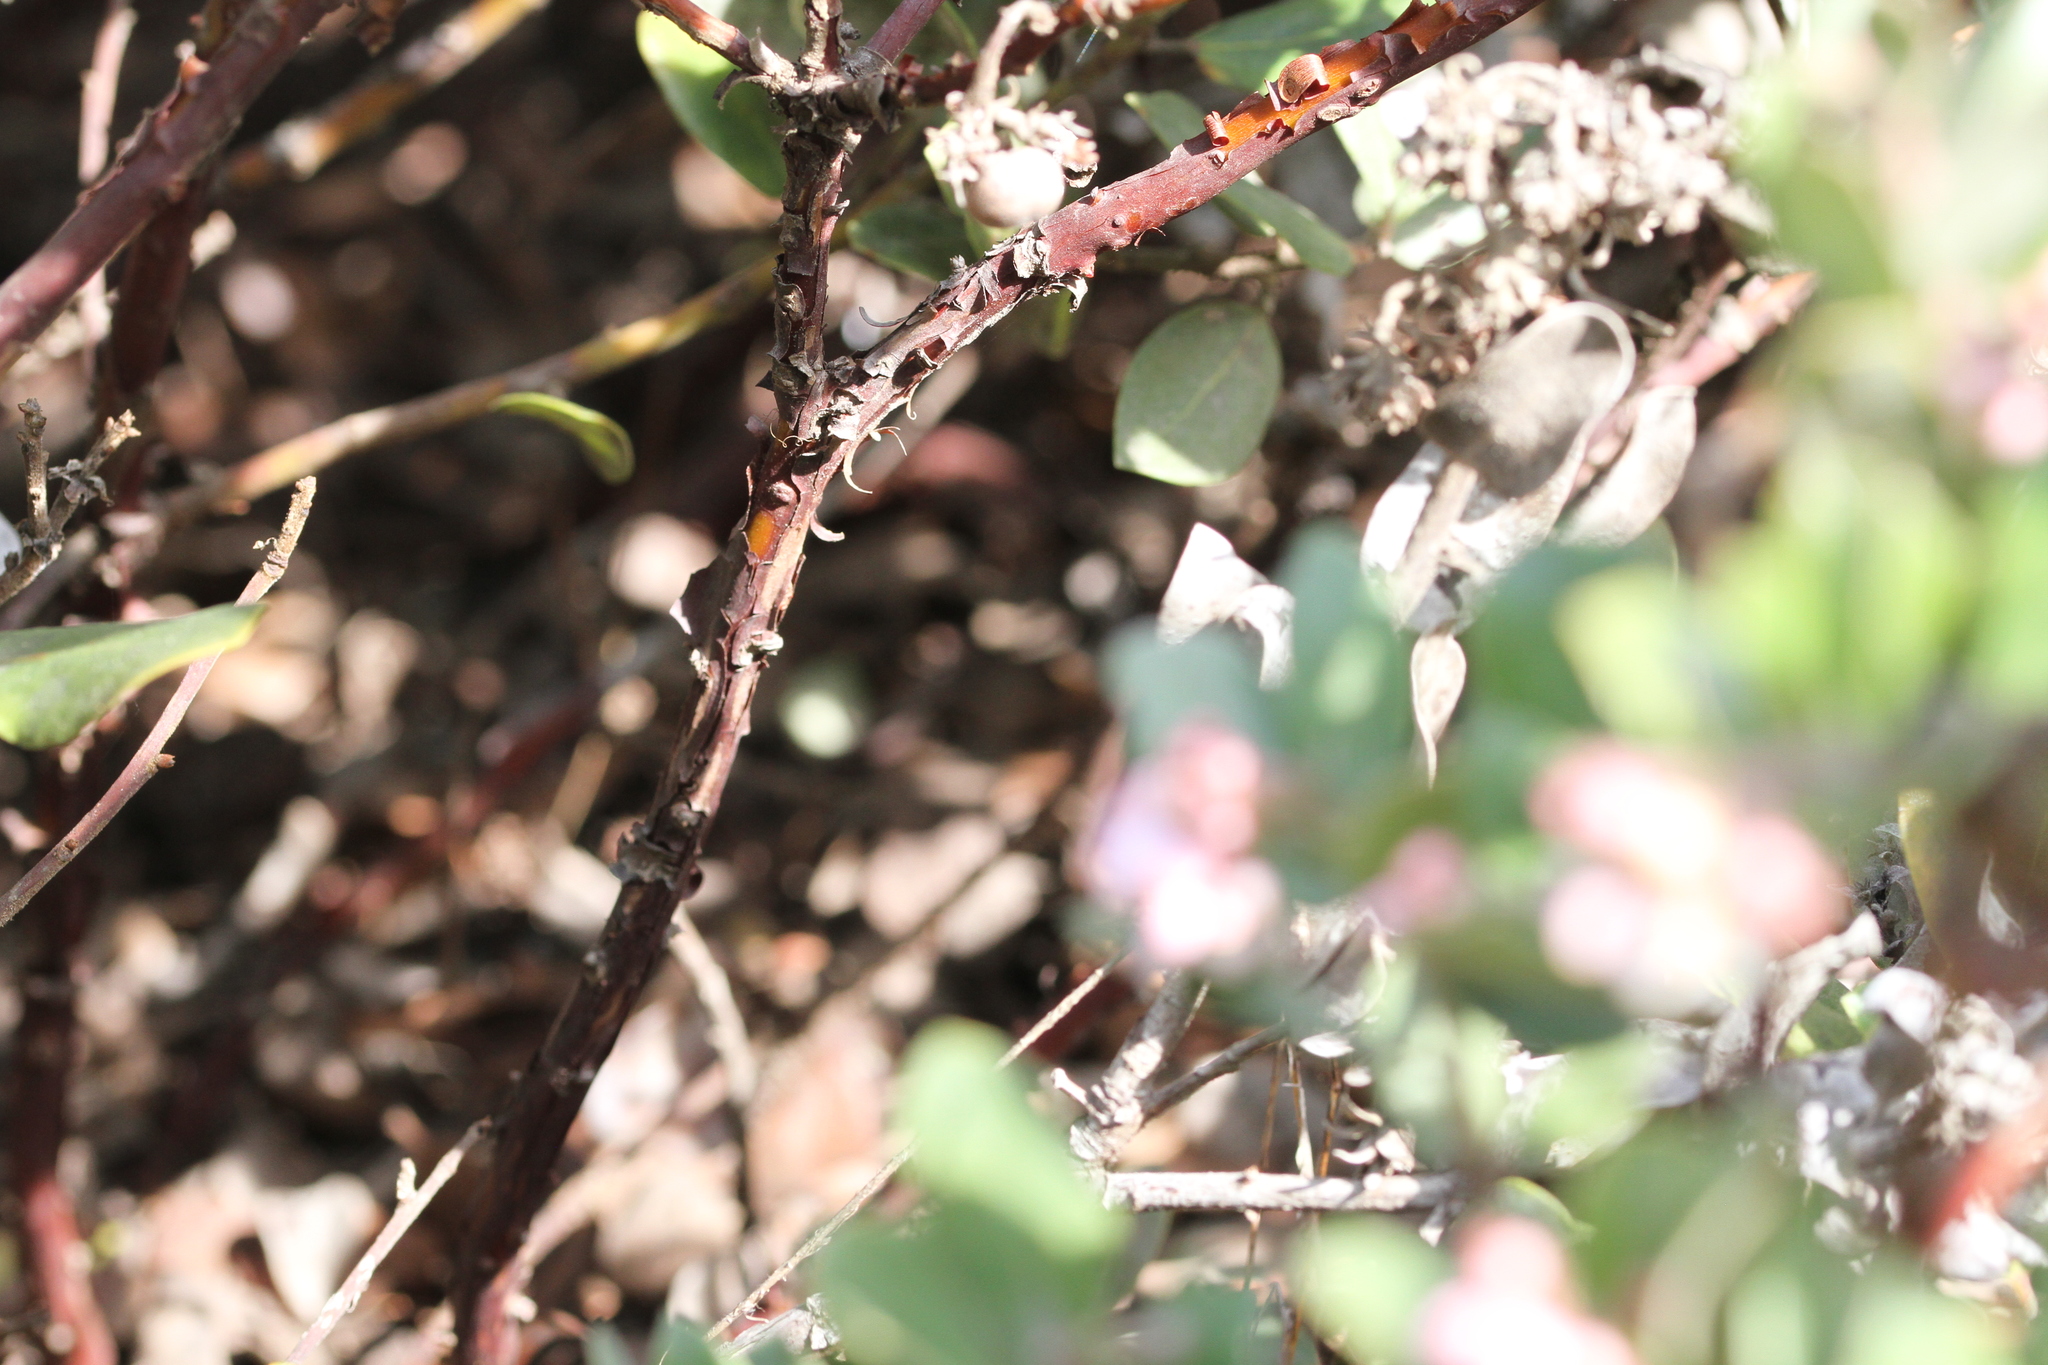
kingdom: Plantae
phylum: Tracheophyta
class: Magnoliopsida
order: Ericales
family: Ericaceae
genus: Arctostaphylos
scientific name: Arctostaphylos tomentosa
